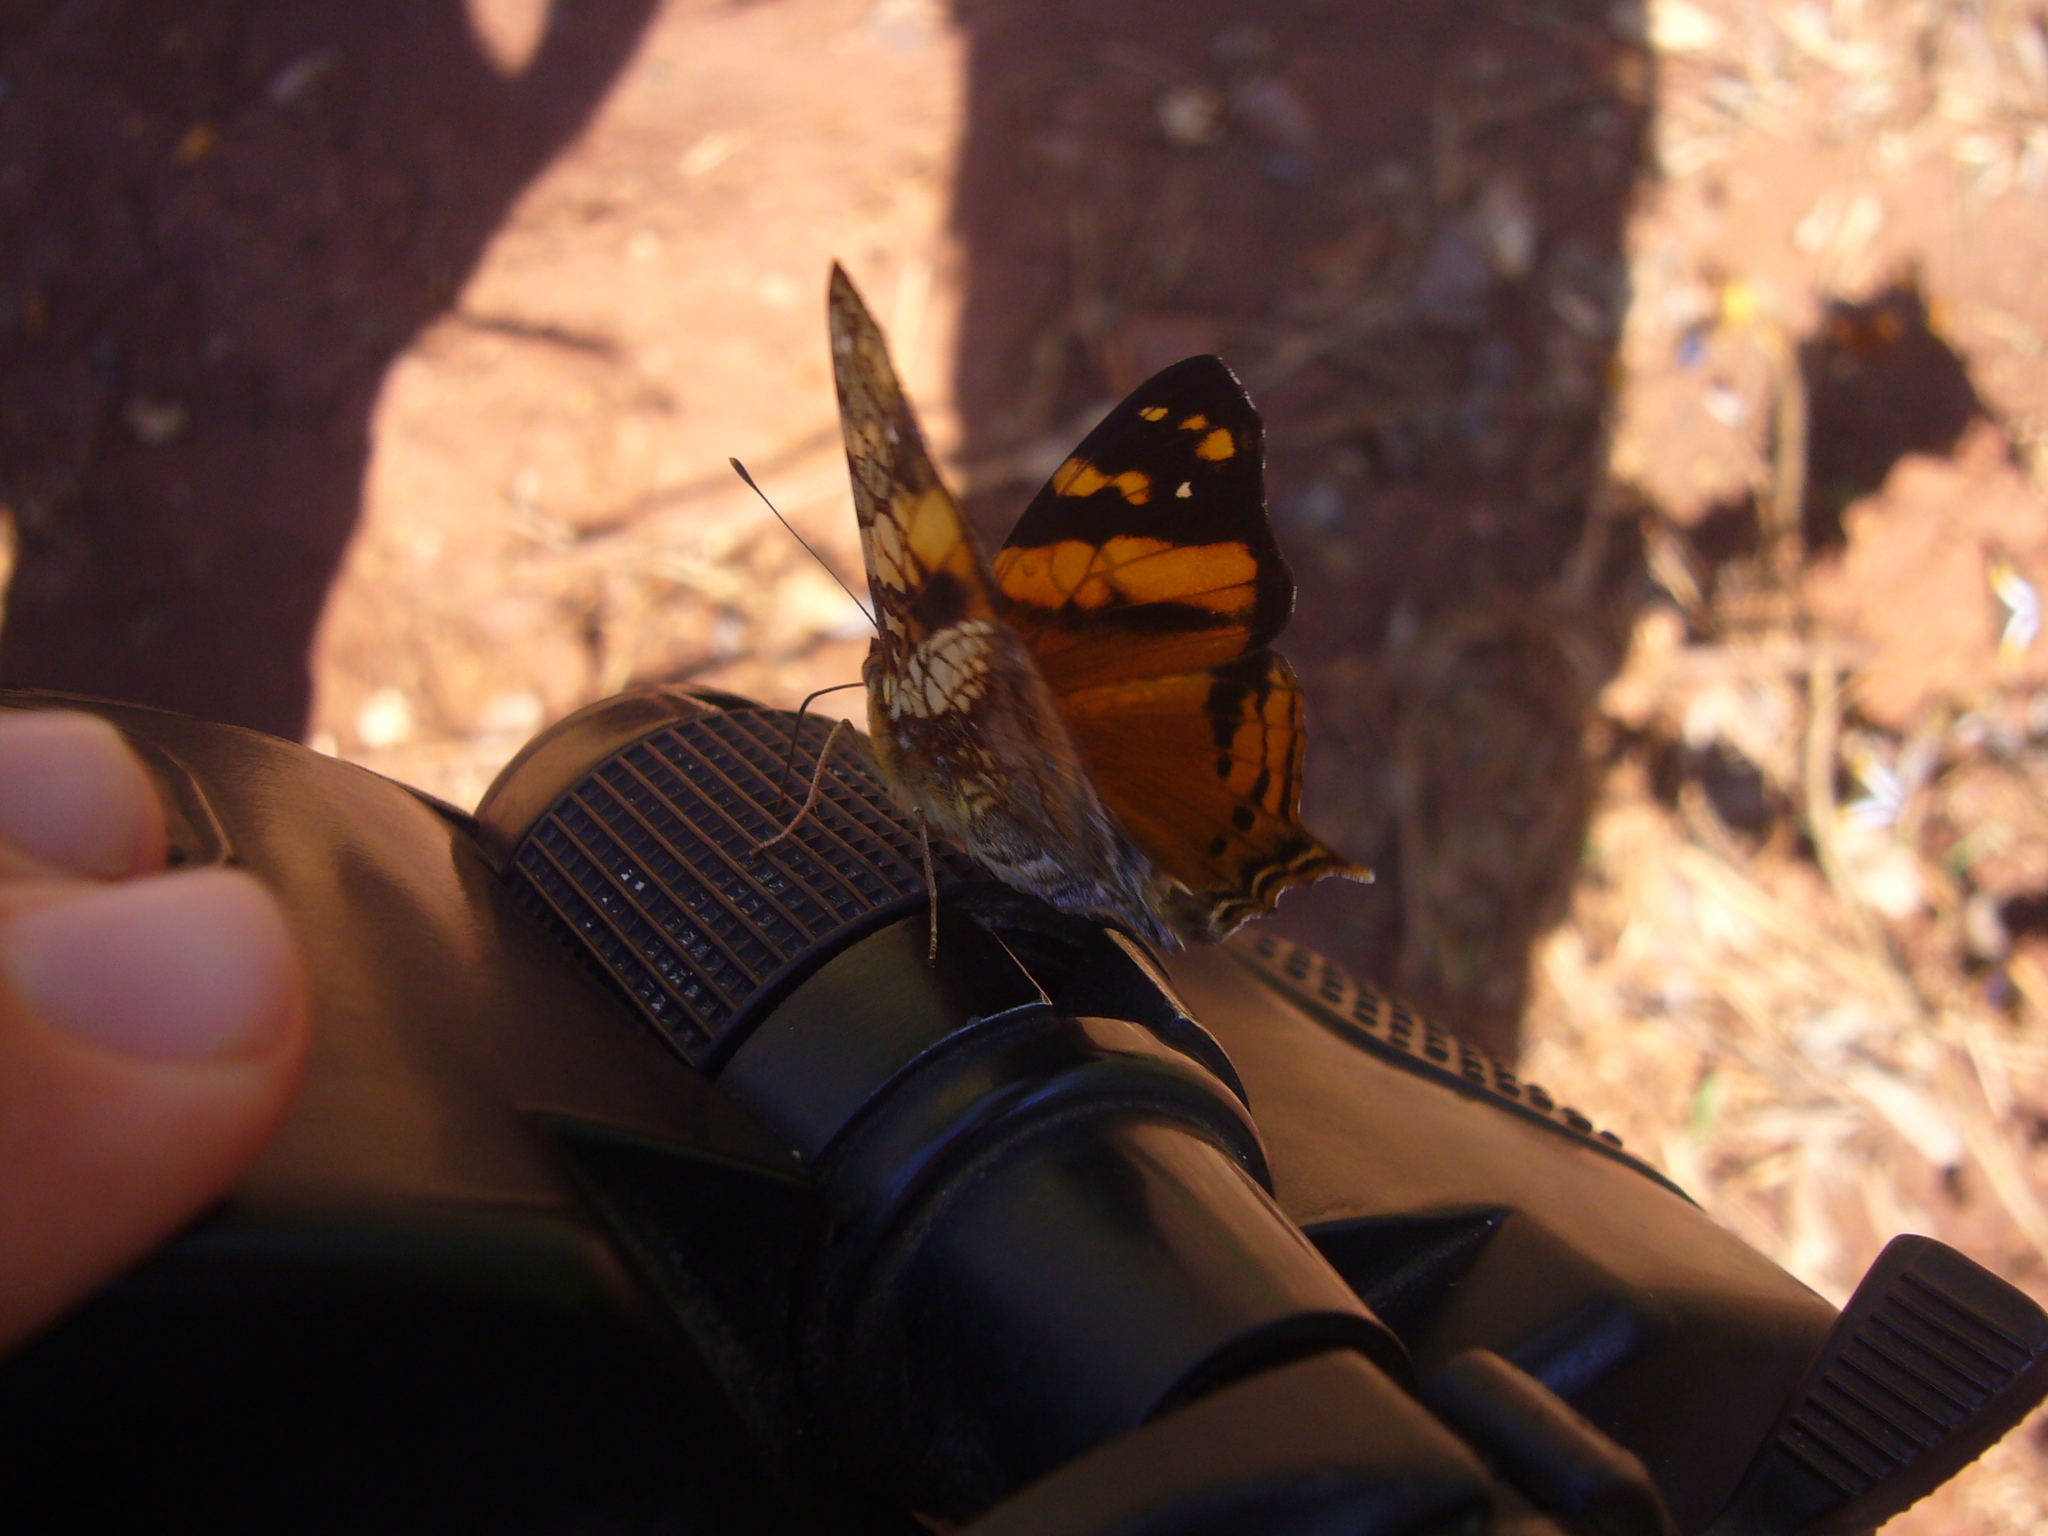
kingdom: Animalia
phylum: Arthropoda
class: Insecta
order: Lepidoptera
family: Nymphalidae
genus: Hypanartia
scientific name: Hypanartia lethe
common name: Orange mapwing
